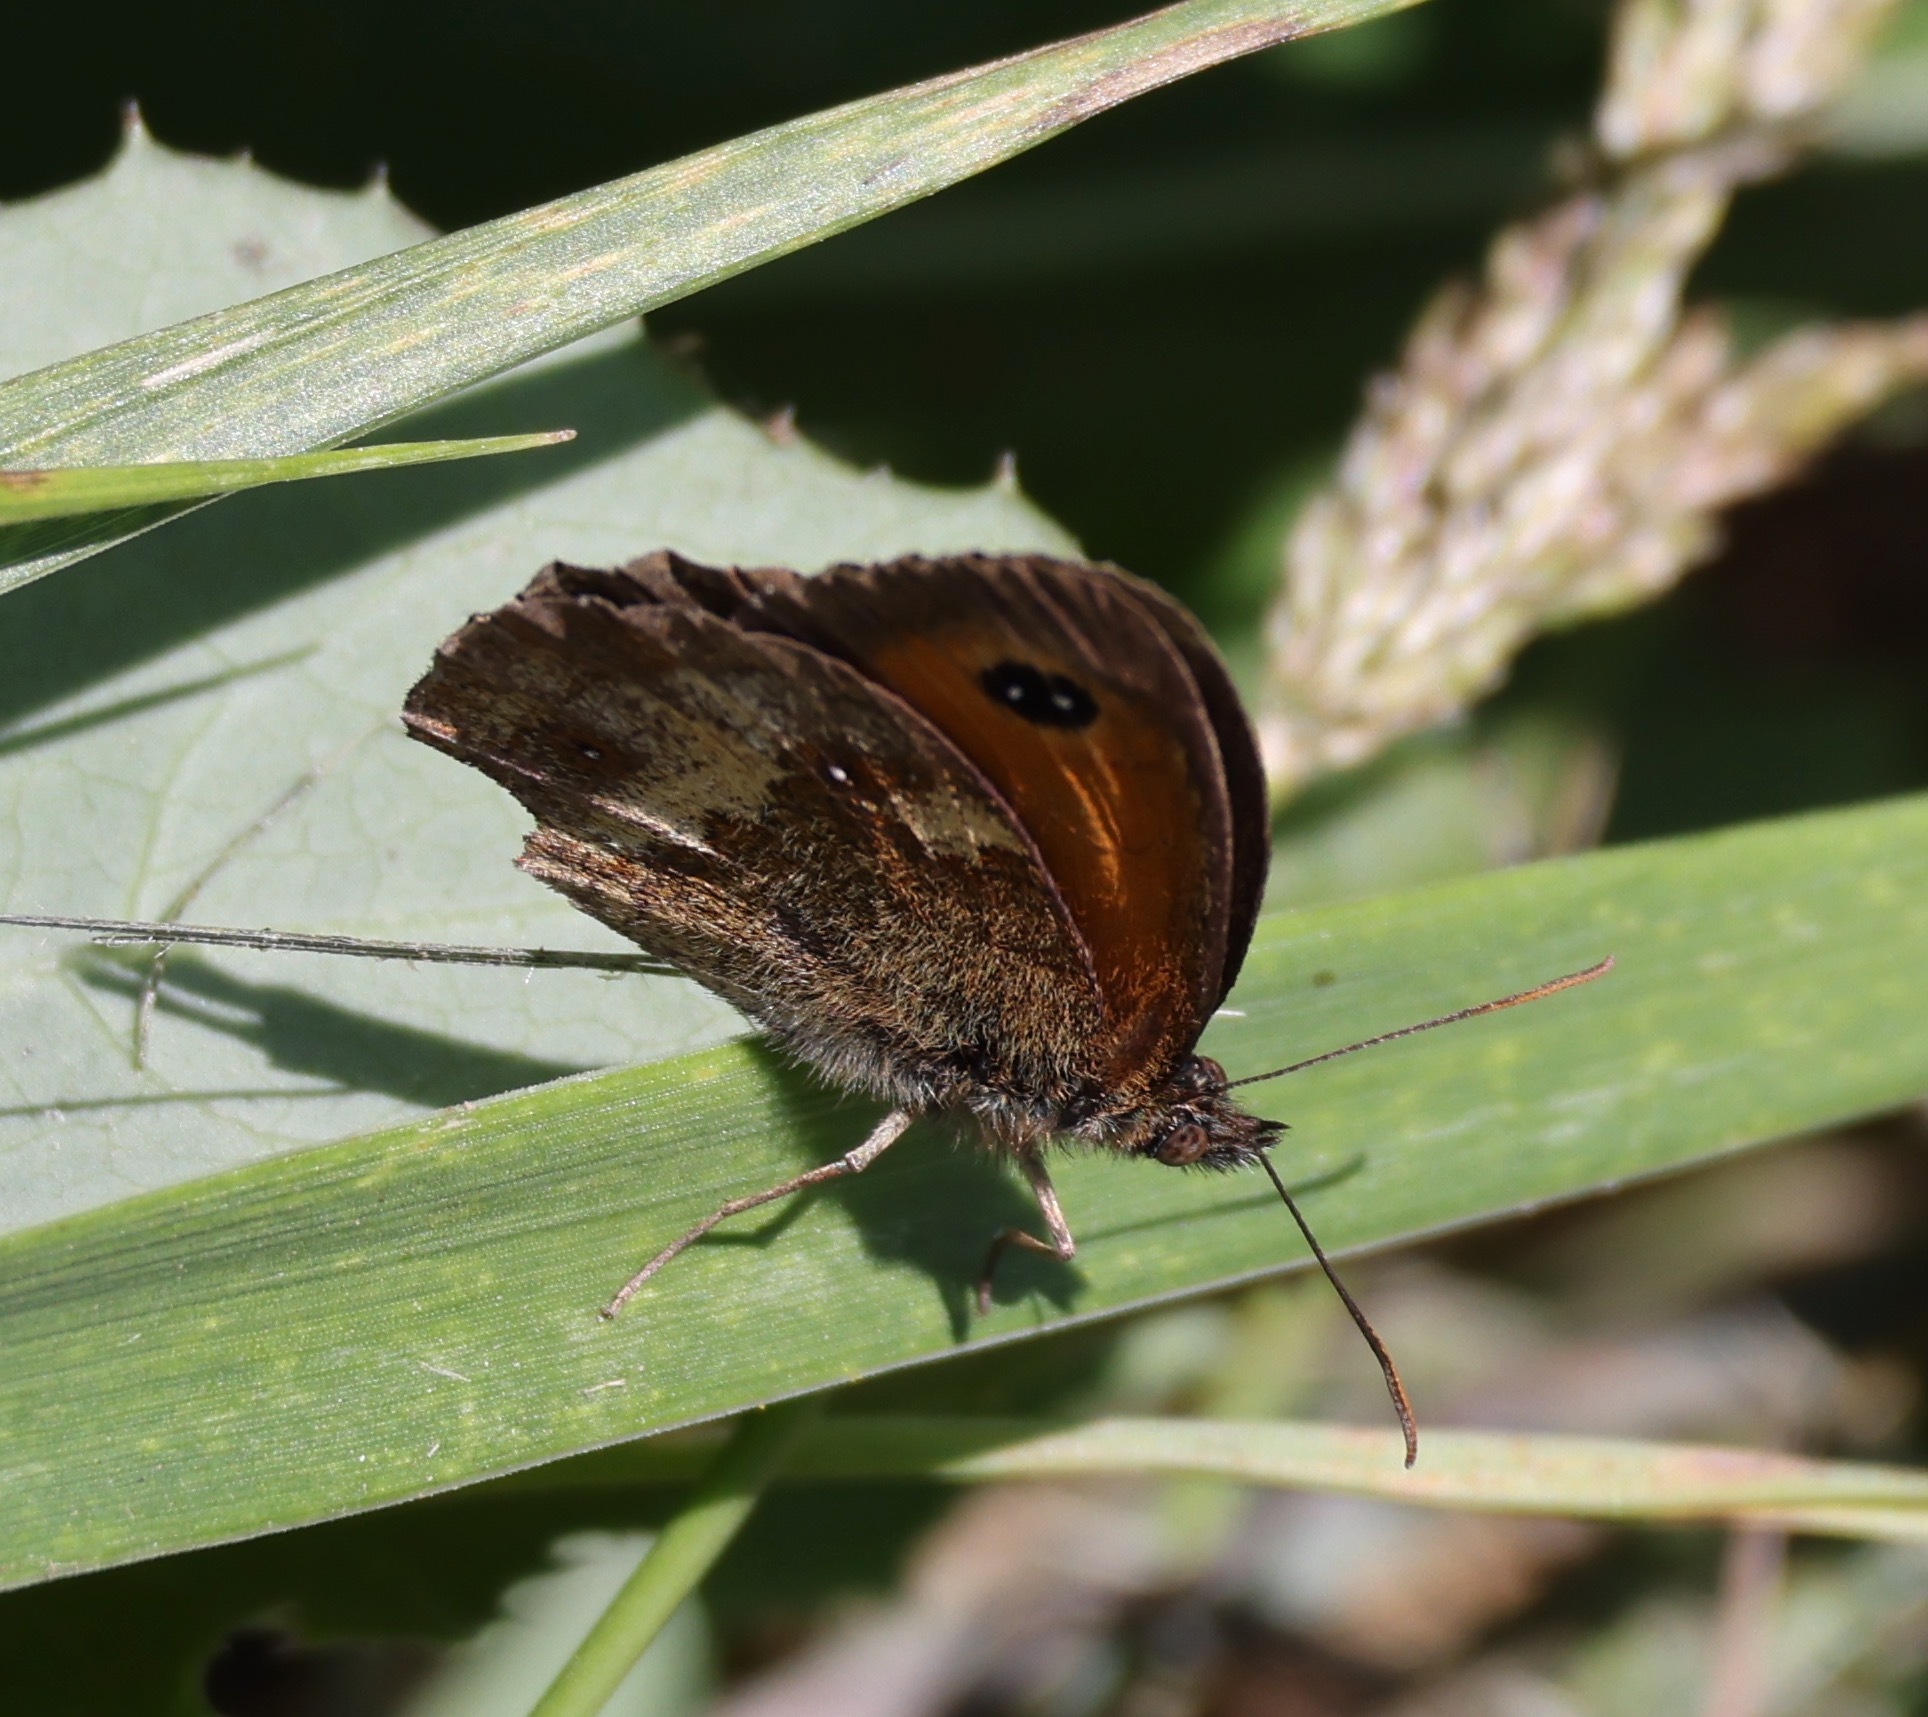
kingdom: Animalia
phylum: Arthropoda
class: Insecta
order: Lepidoptera
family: Nymphalidae
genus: Pyronia
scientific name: Pyronia tithonus
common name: Gatekeeper
